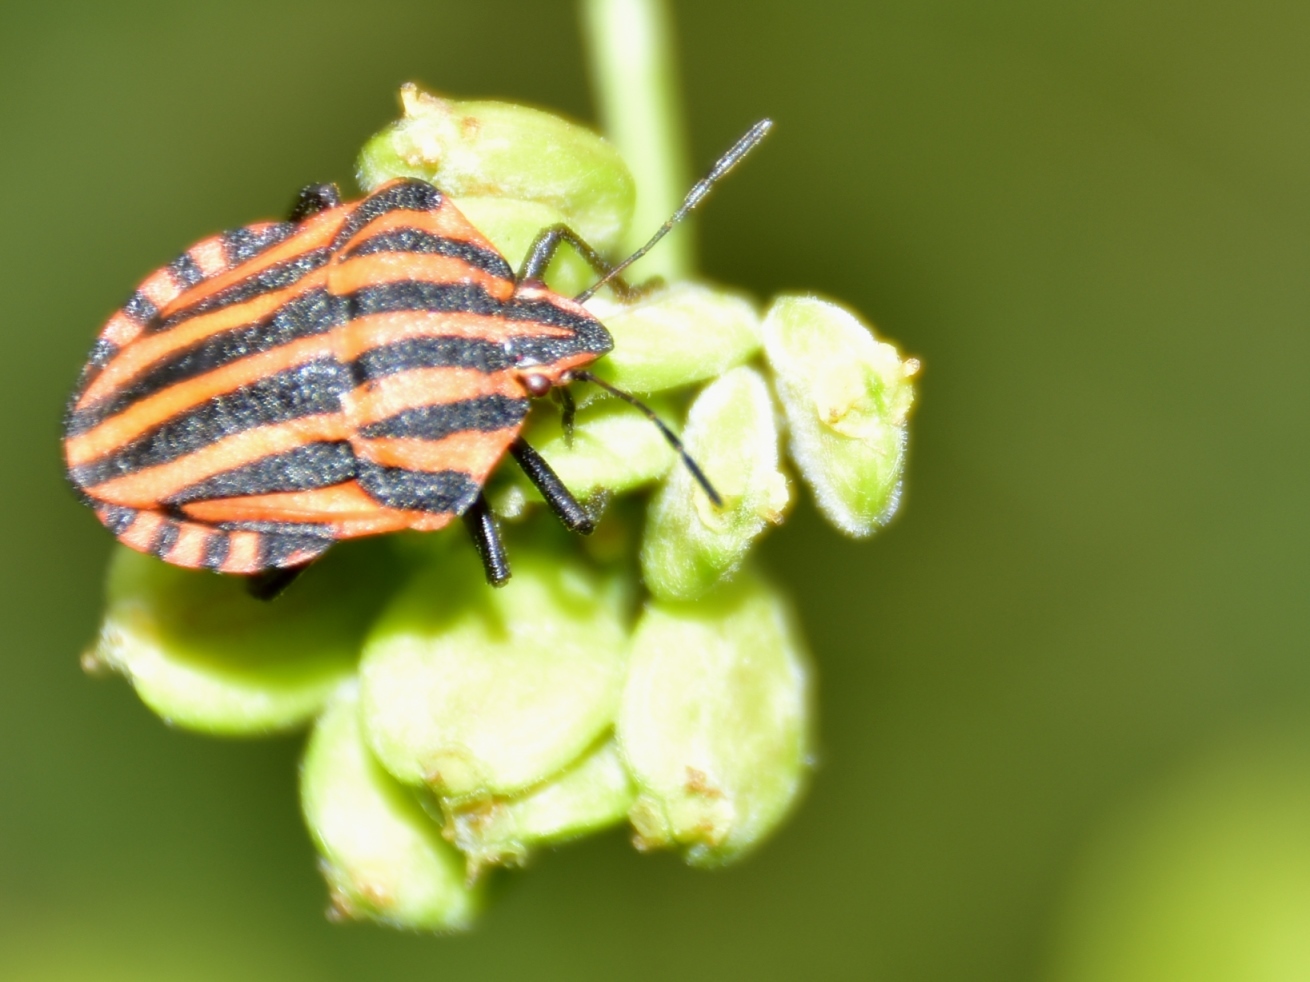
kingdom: Animalia
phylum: Arthropoda
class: Insecta
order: Hemiptera
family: Pentatomidae
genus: Graphosoma
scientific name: Graphosoma italicum
